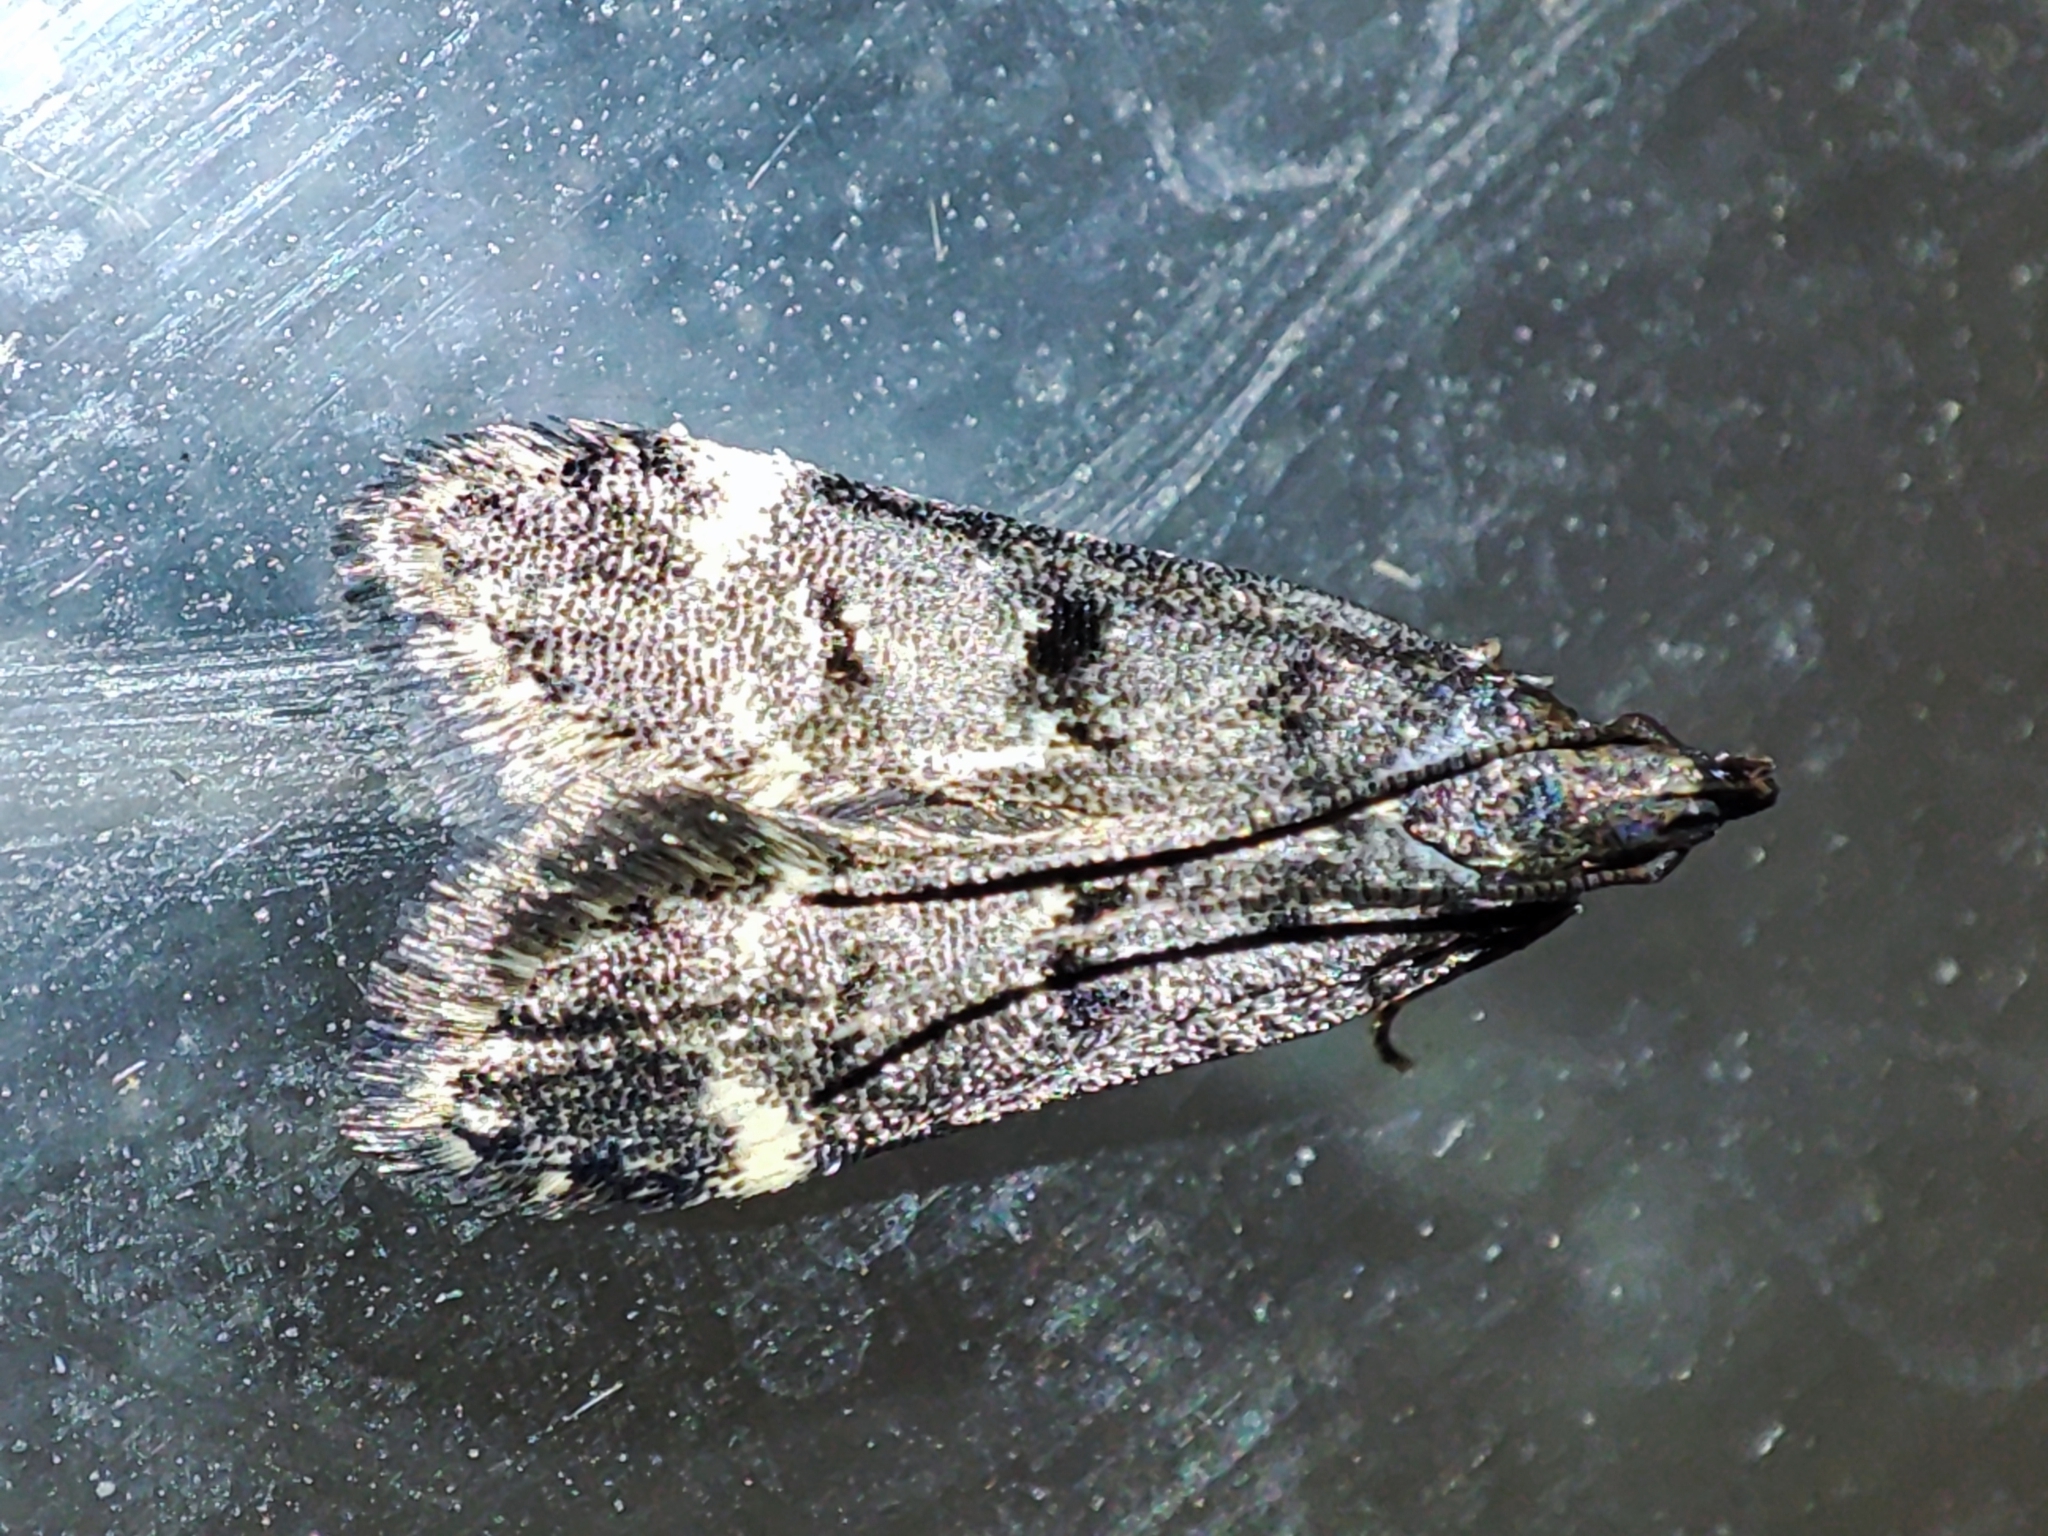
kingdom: Animalia
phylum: Arthropoda
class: Insecta
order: Lepidoptera
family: Gelechiidae
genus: Acanthophila
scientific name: Acanthophila alacella
